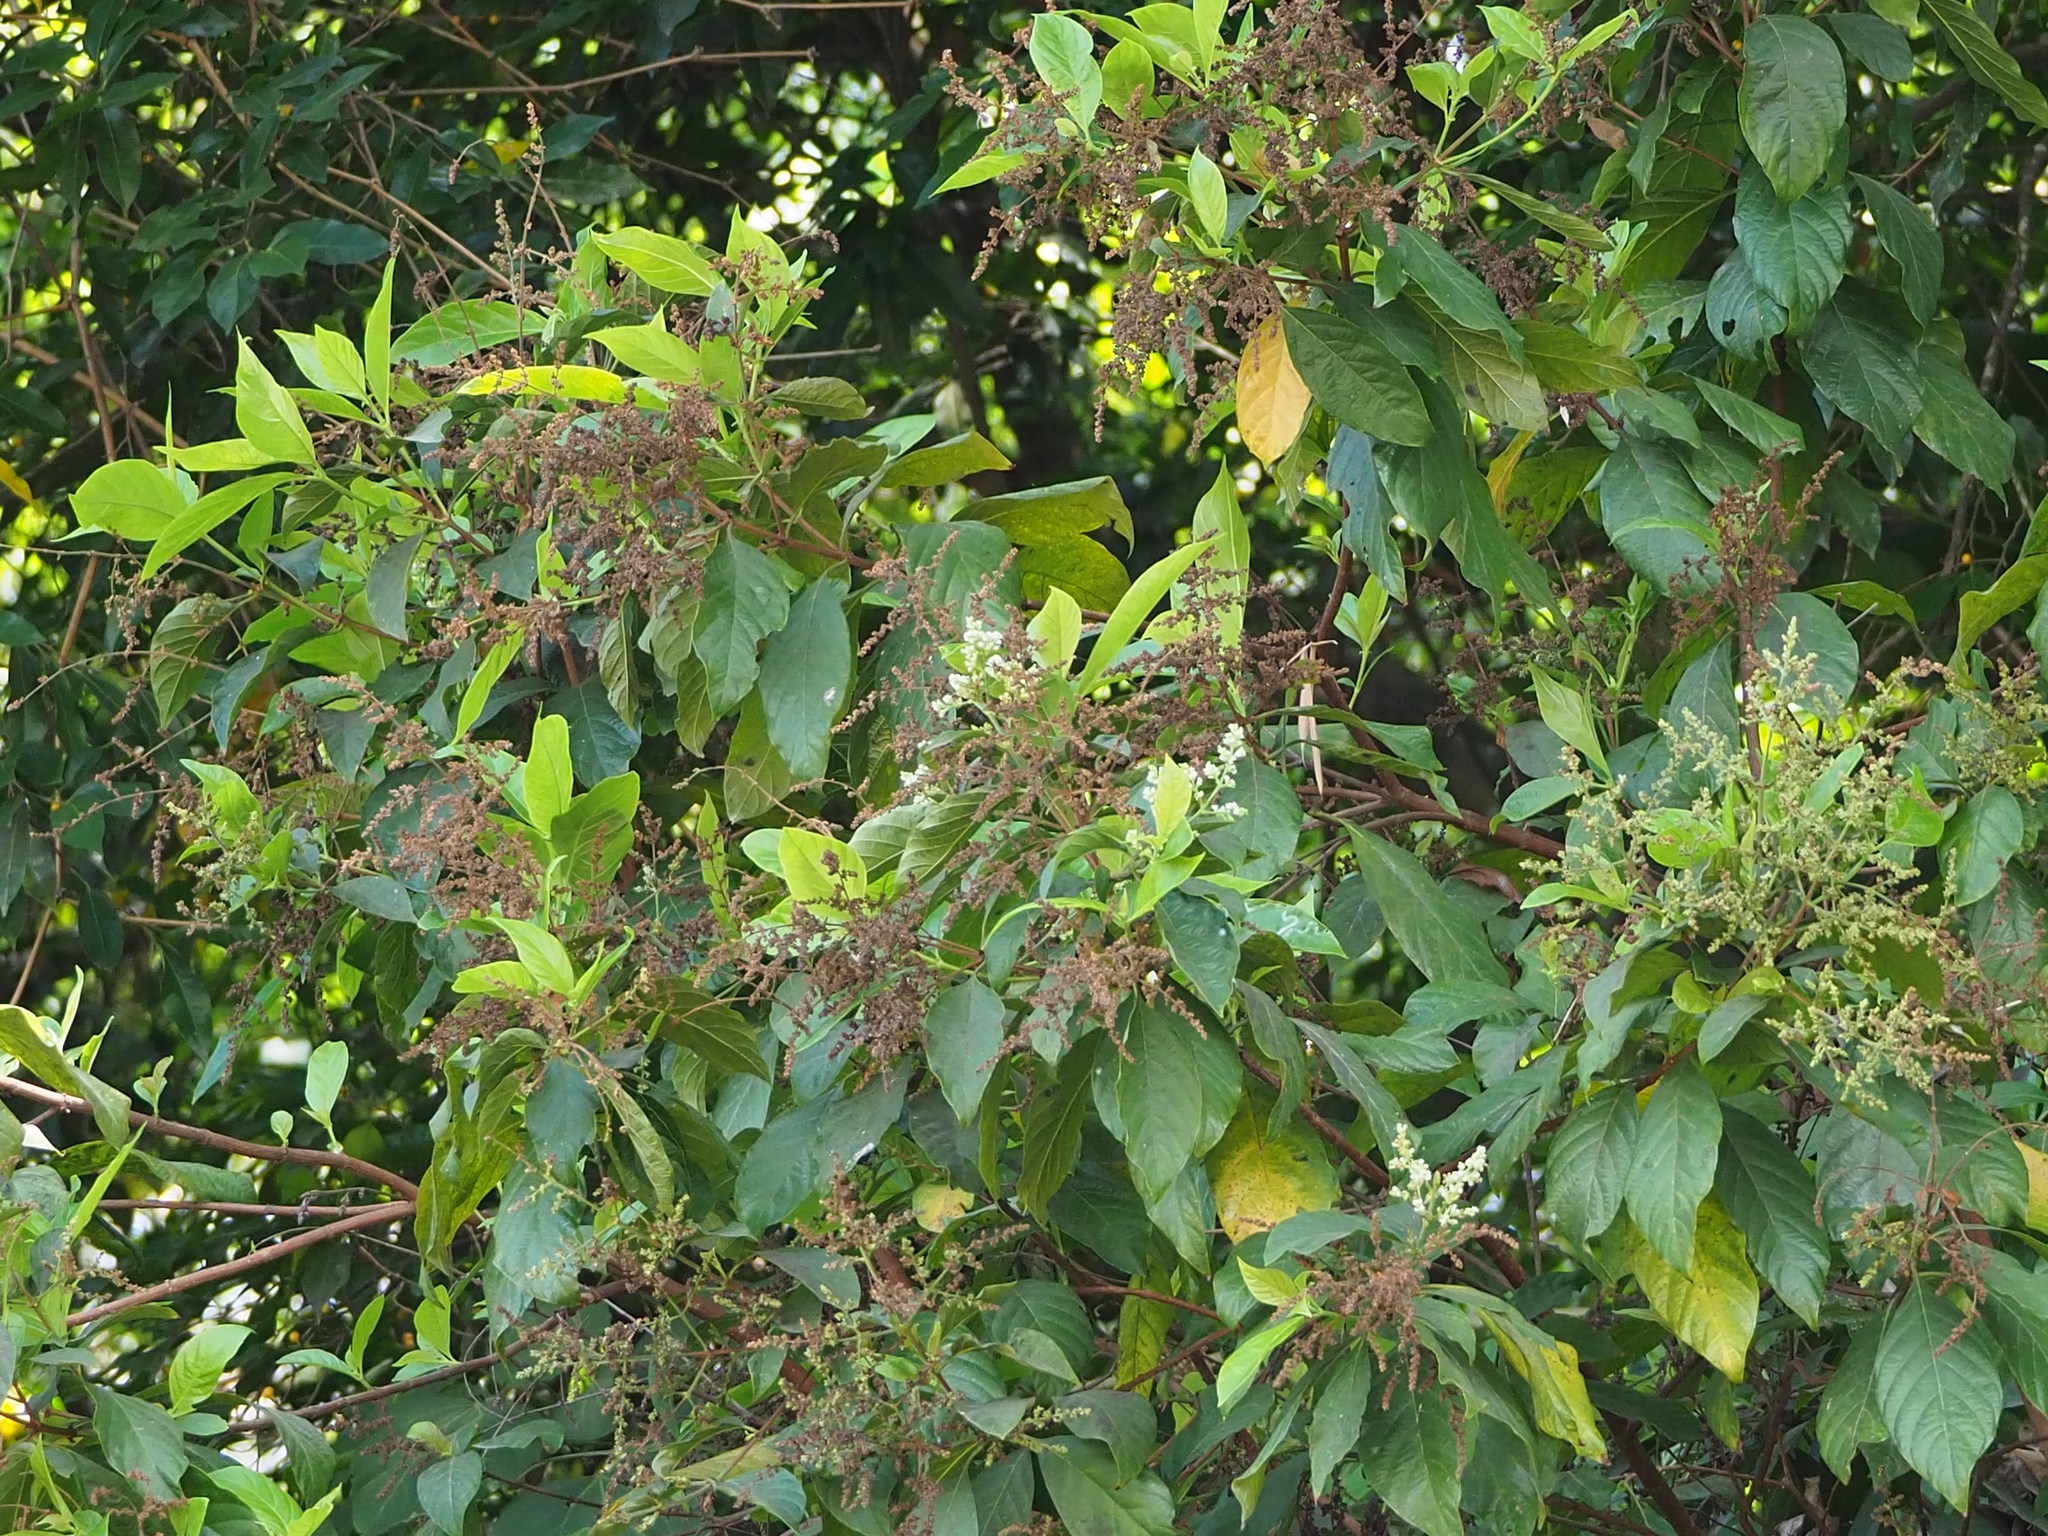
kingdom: Plantae
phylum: Tracheophyta
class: Magnoliopsida
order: Gentianales
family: Rubiaceae
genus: Wendlandia
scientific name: Wendlandia uvariifolia
